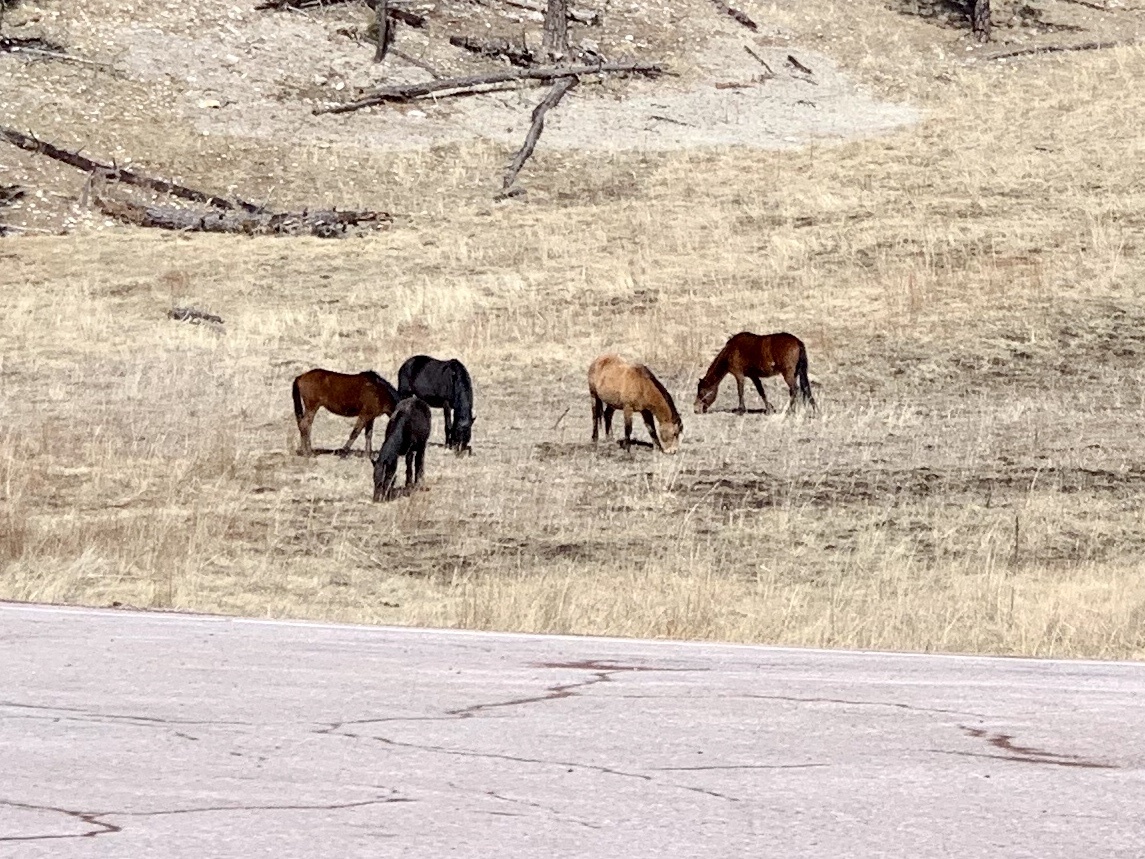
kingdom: Animalia
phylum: Chordata
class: Mammalia
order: Perissodactyla
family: Equidae
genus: Equus
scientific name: Equus caballus
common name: Horse
